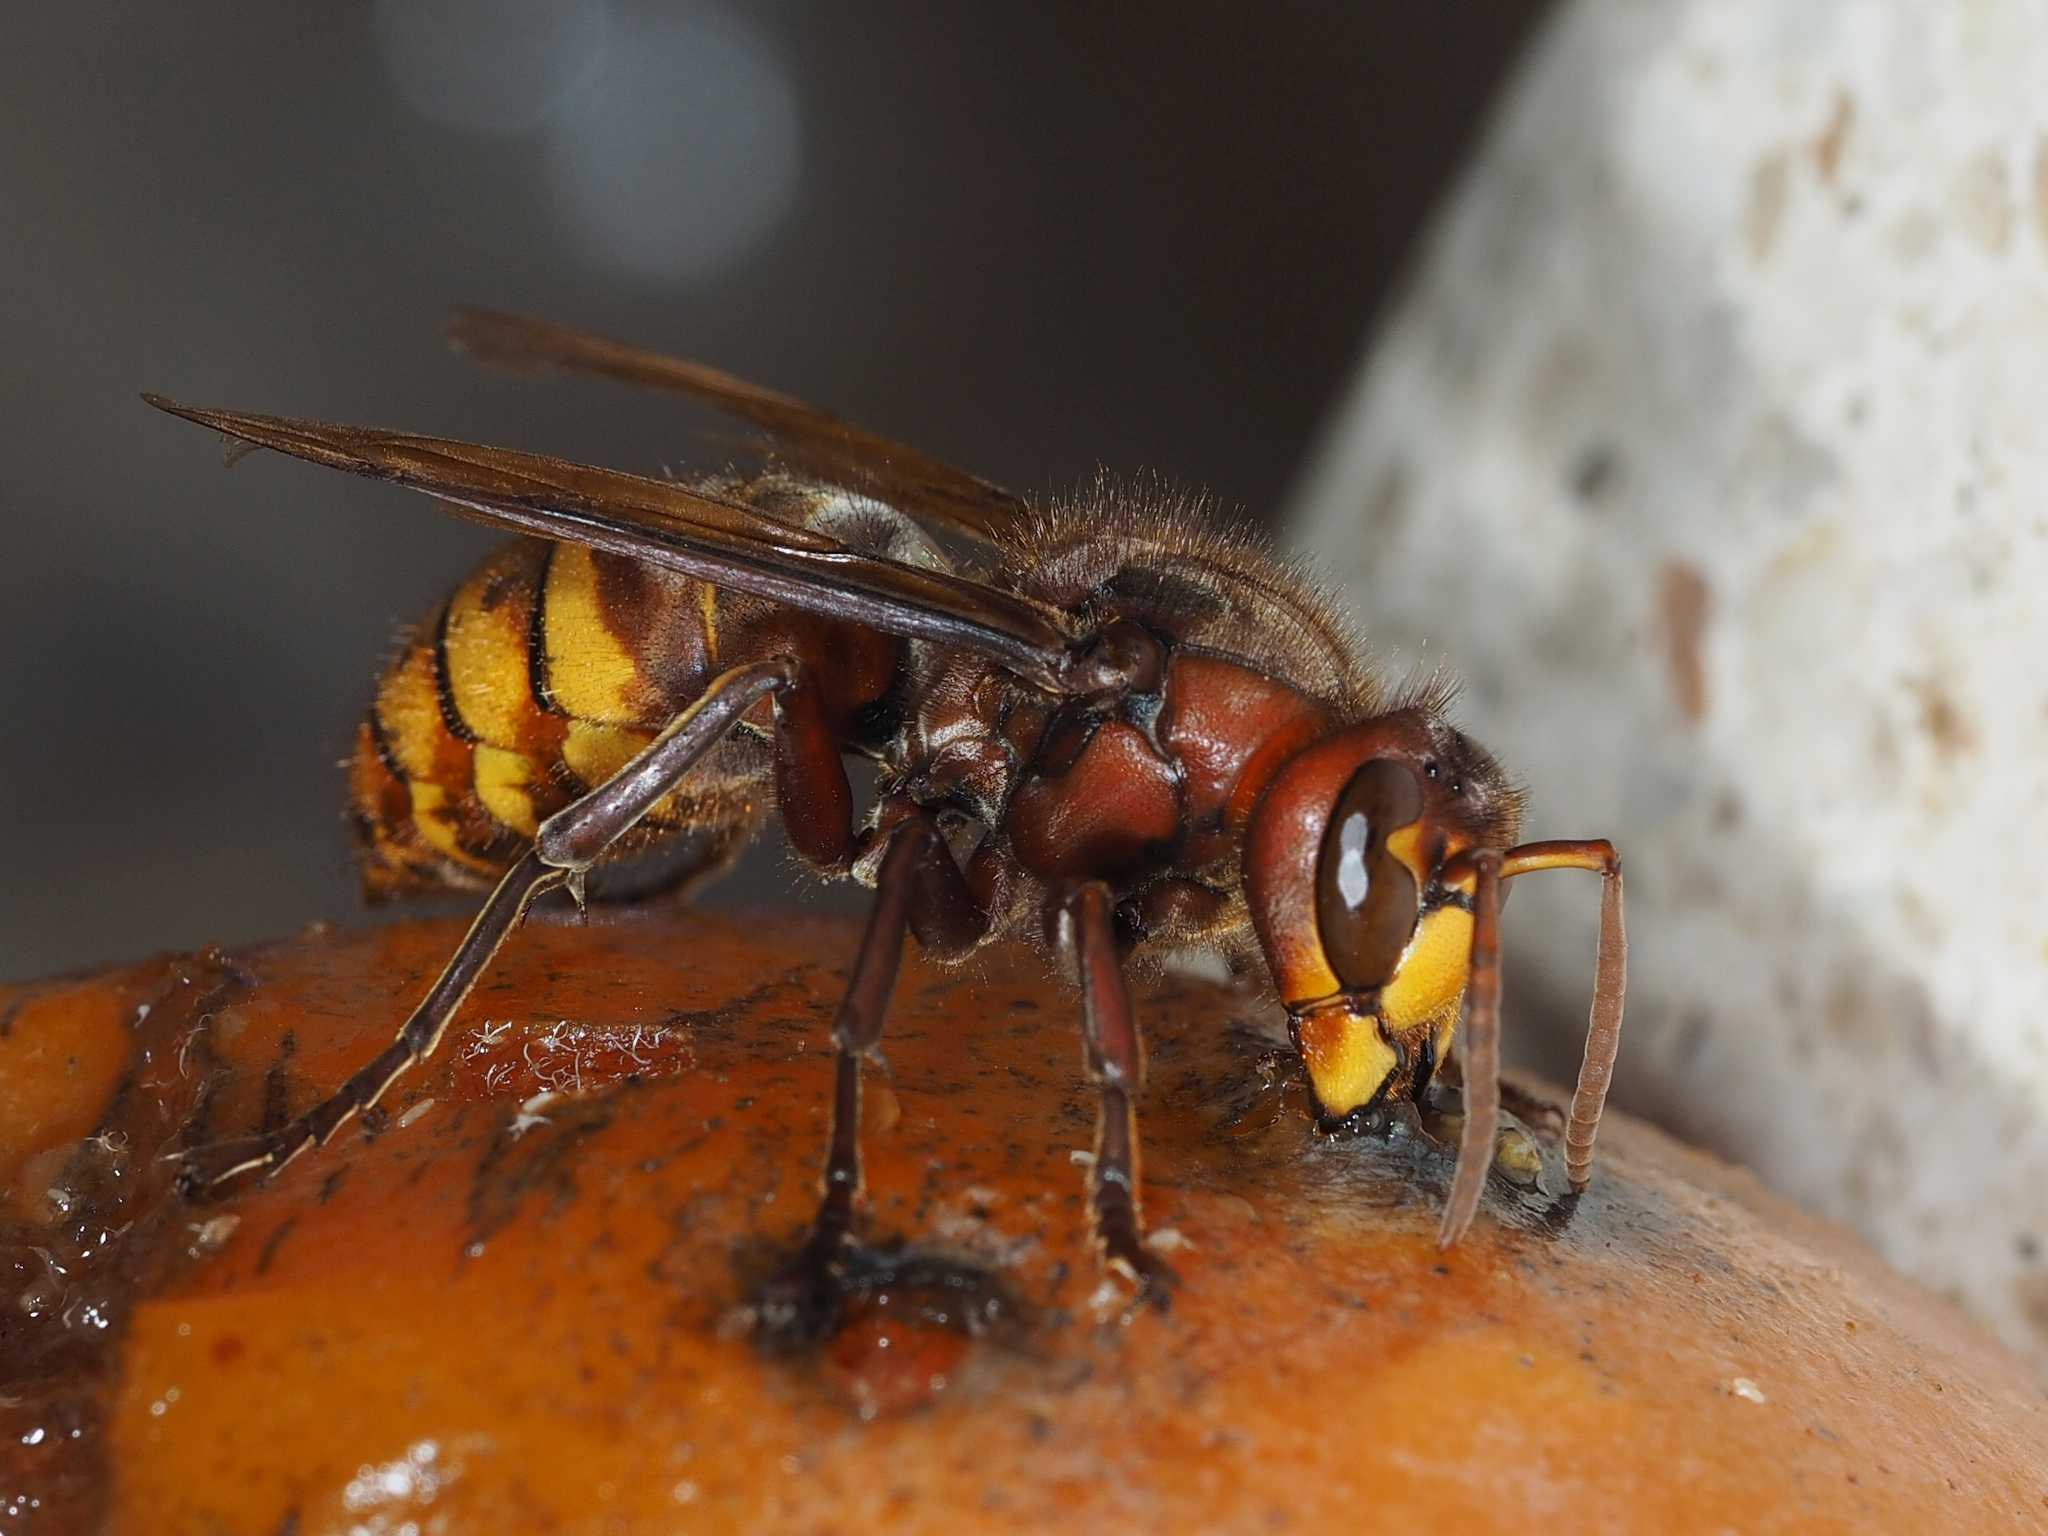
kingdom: Animalia
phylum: Arthropoda
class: Insecta
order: Hymenoptera
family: Vespidae
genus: Vespa
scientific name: Vespa crabro
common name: Hornet
